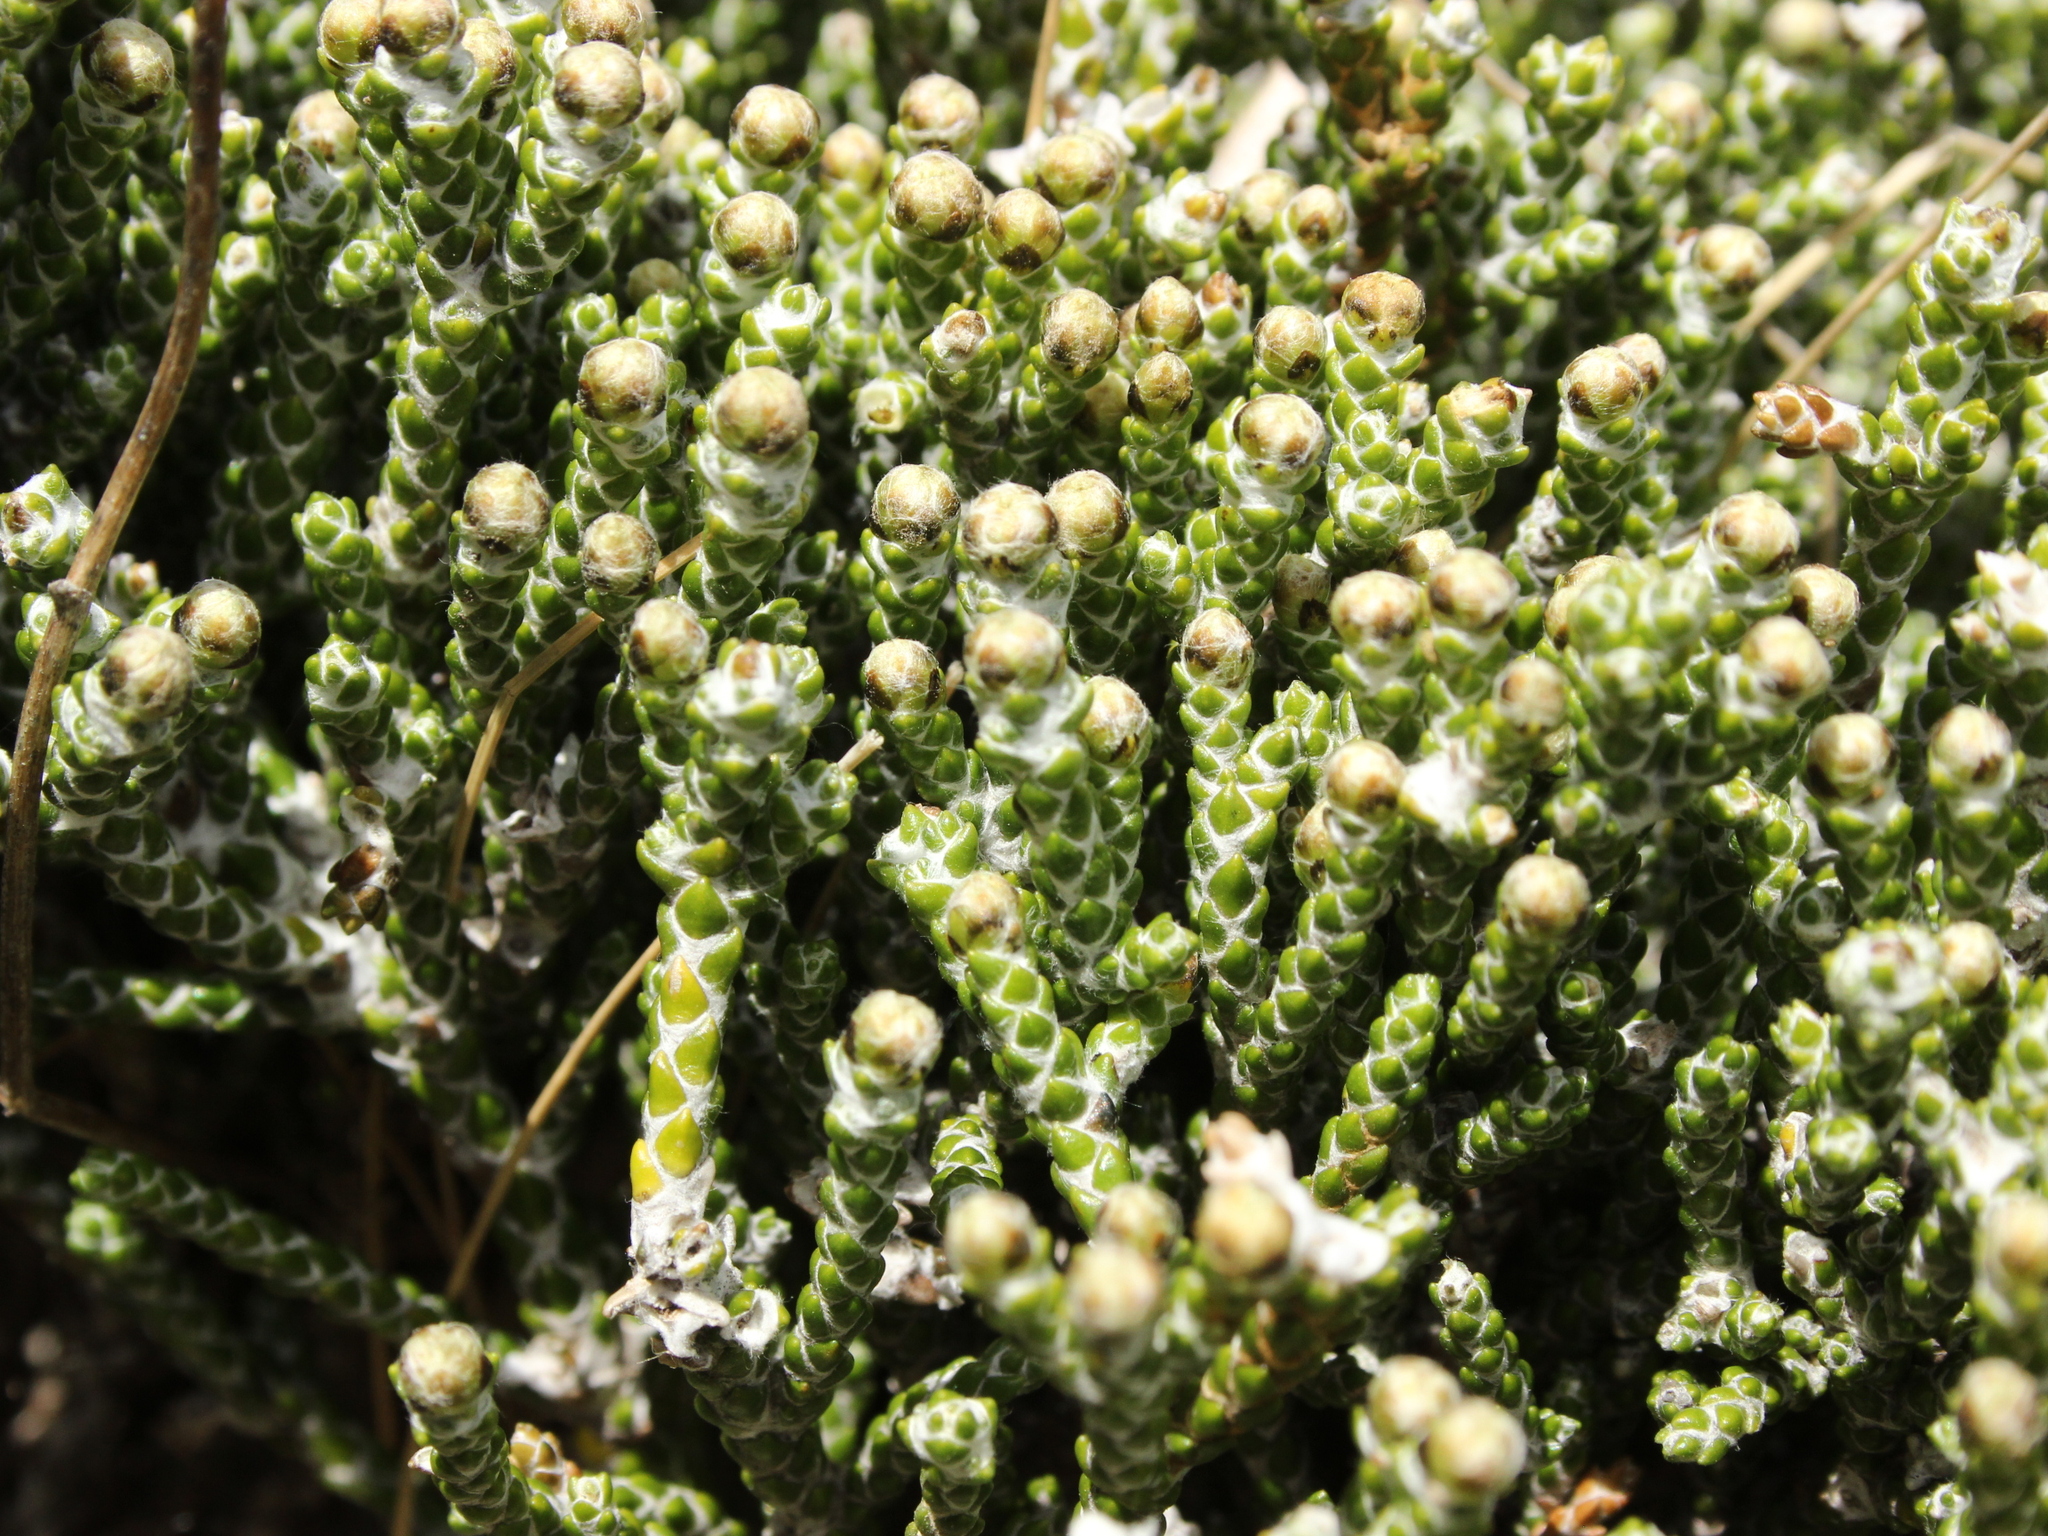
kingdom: Plantae
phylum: Tracheophyta
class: Magnoliopsida
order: Asterales
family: Asteraceae
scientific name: Asteraceae
